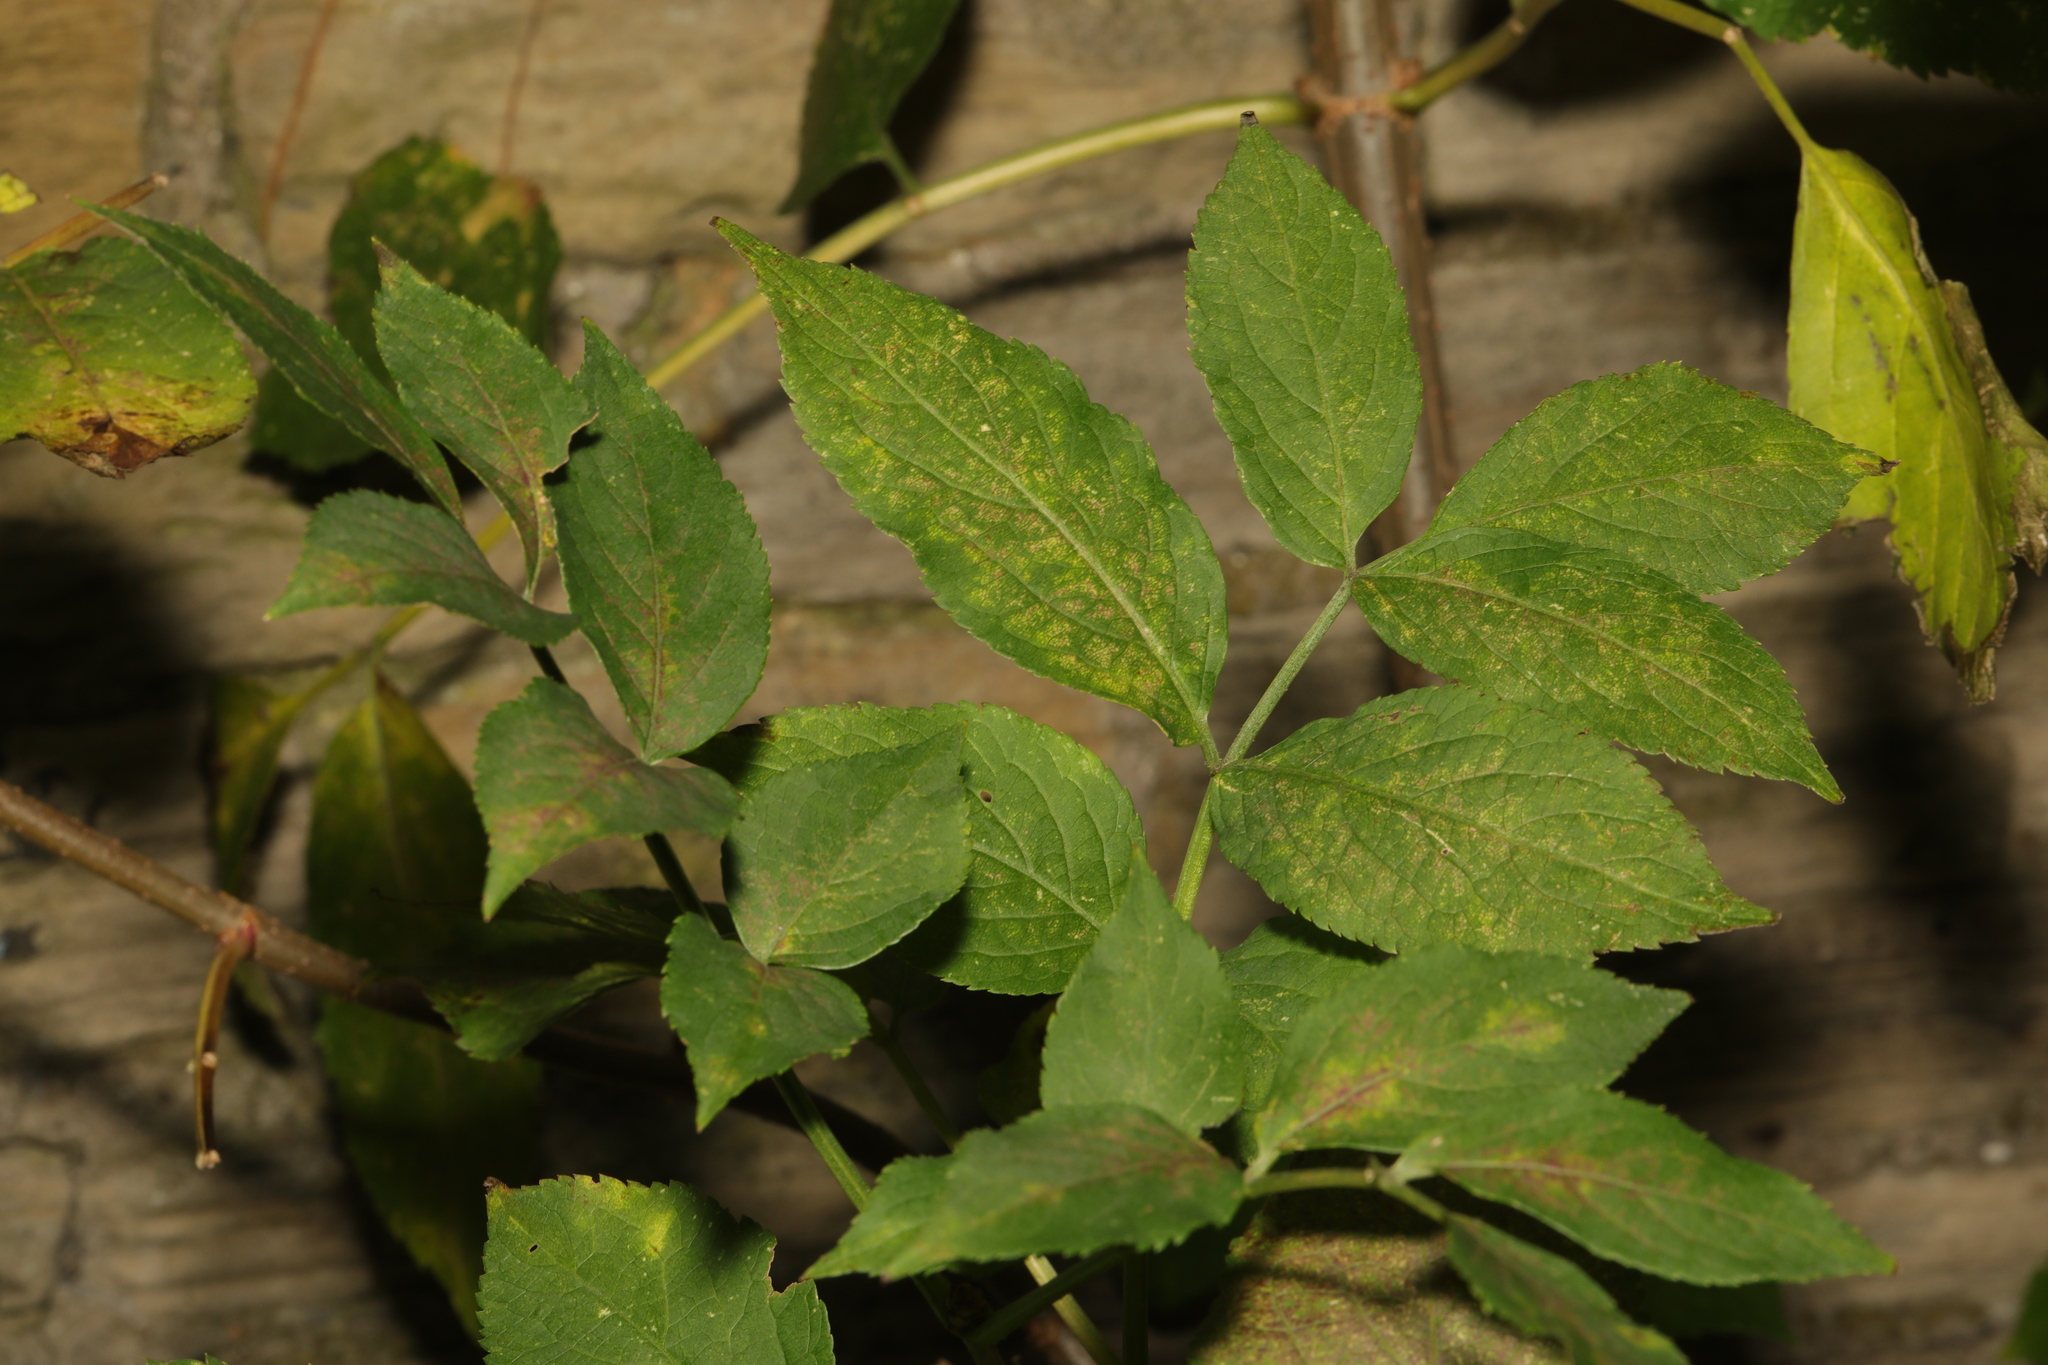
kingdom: Plantae
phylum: Tracheophyta
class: Magnoliopsida
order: Dipsacales
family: Viburnaceae
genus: Sambucus
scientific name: Sambucus nigra
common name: Elder
